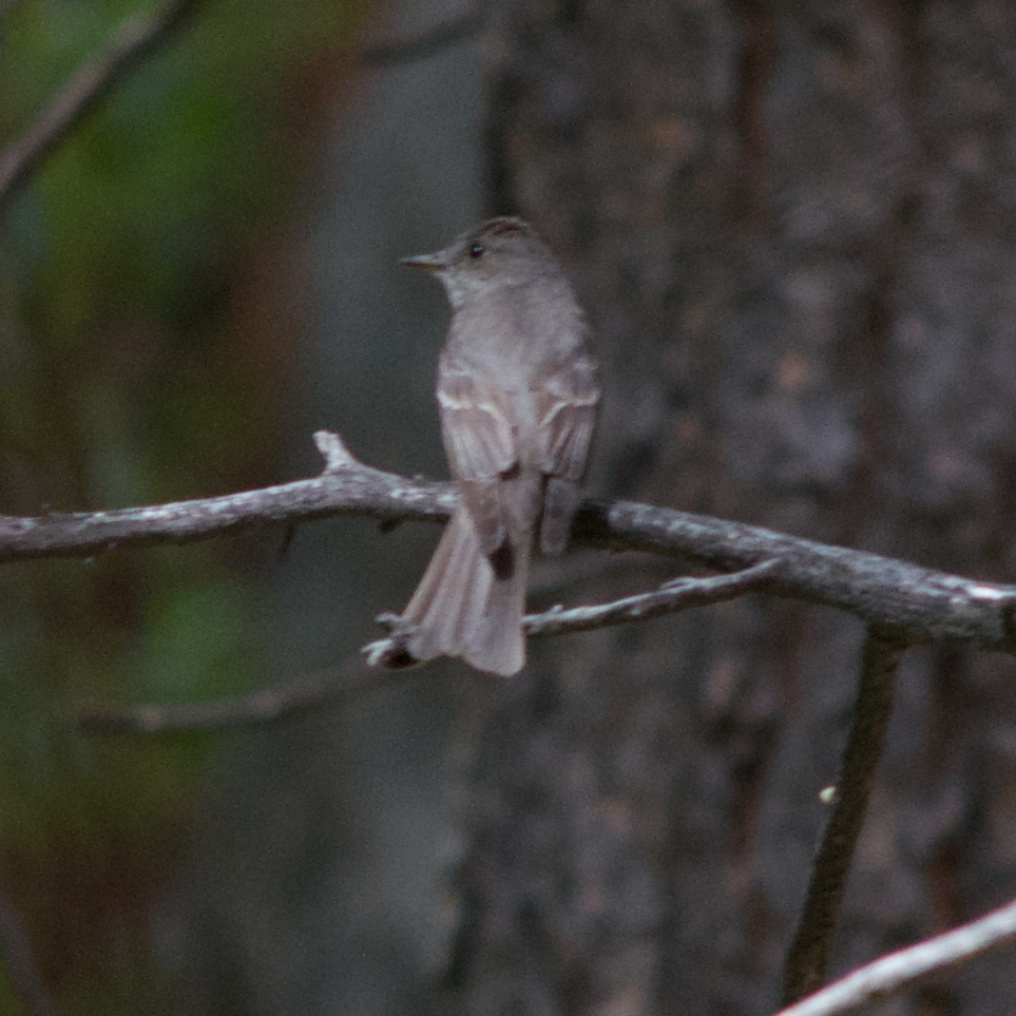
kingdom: Animalia
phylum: Chordata
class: Aves
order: Passeriformes
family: Tyrannidae
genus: Contopus
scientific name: Contopus sordidulus
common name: Western wood-pewee
